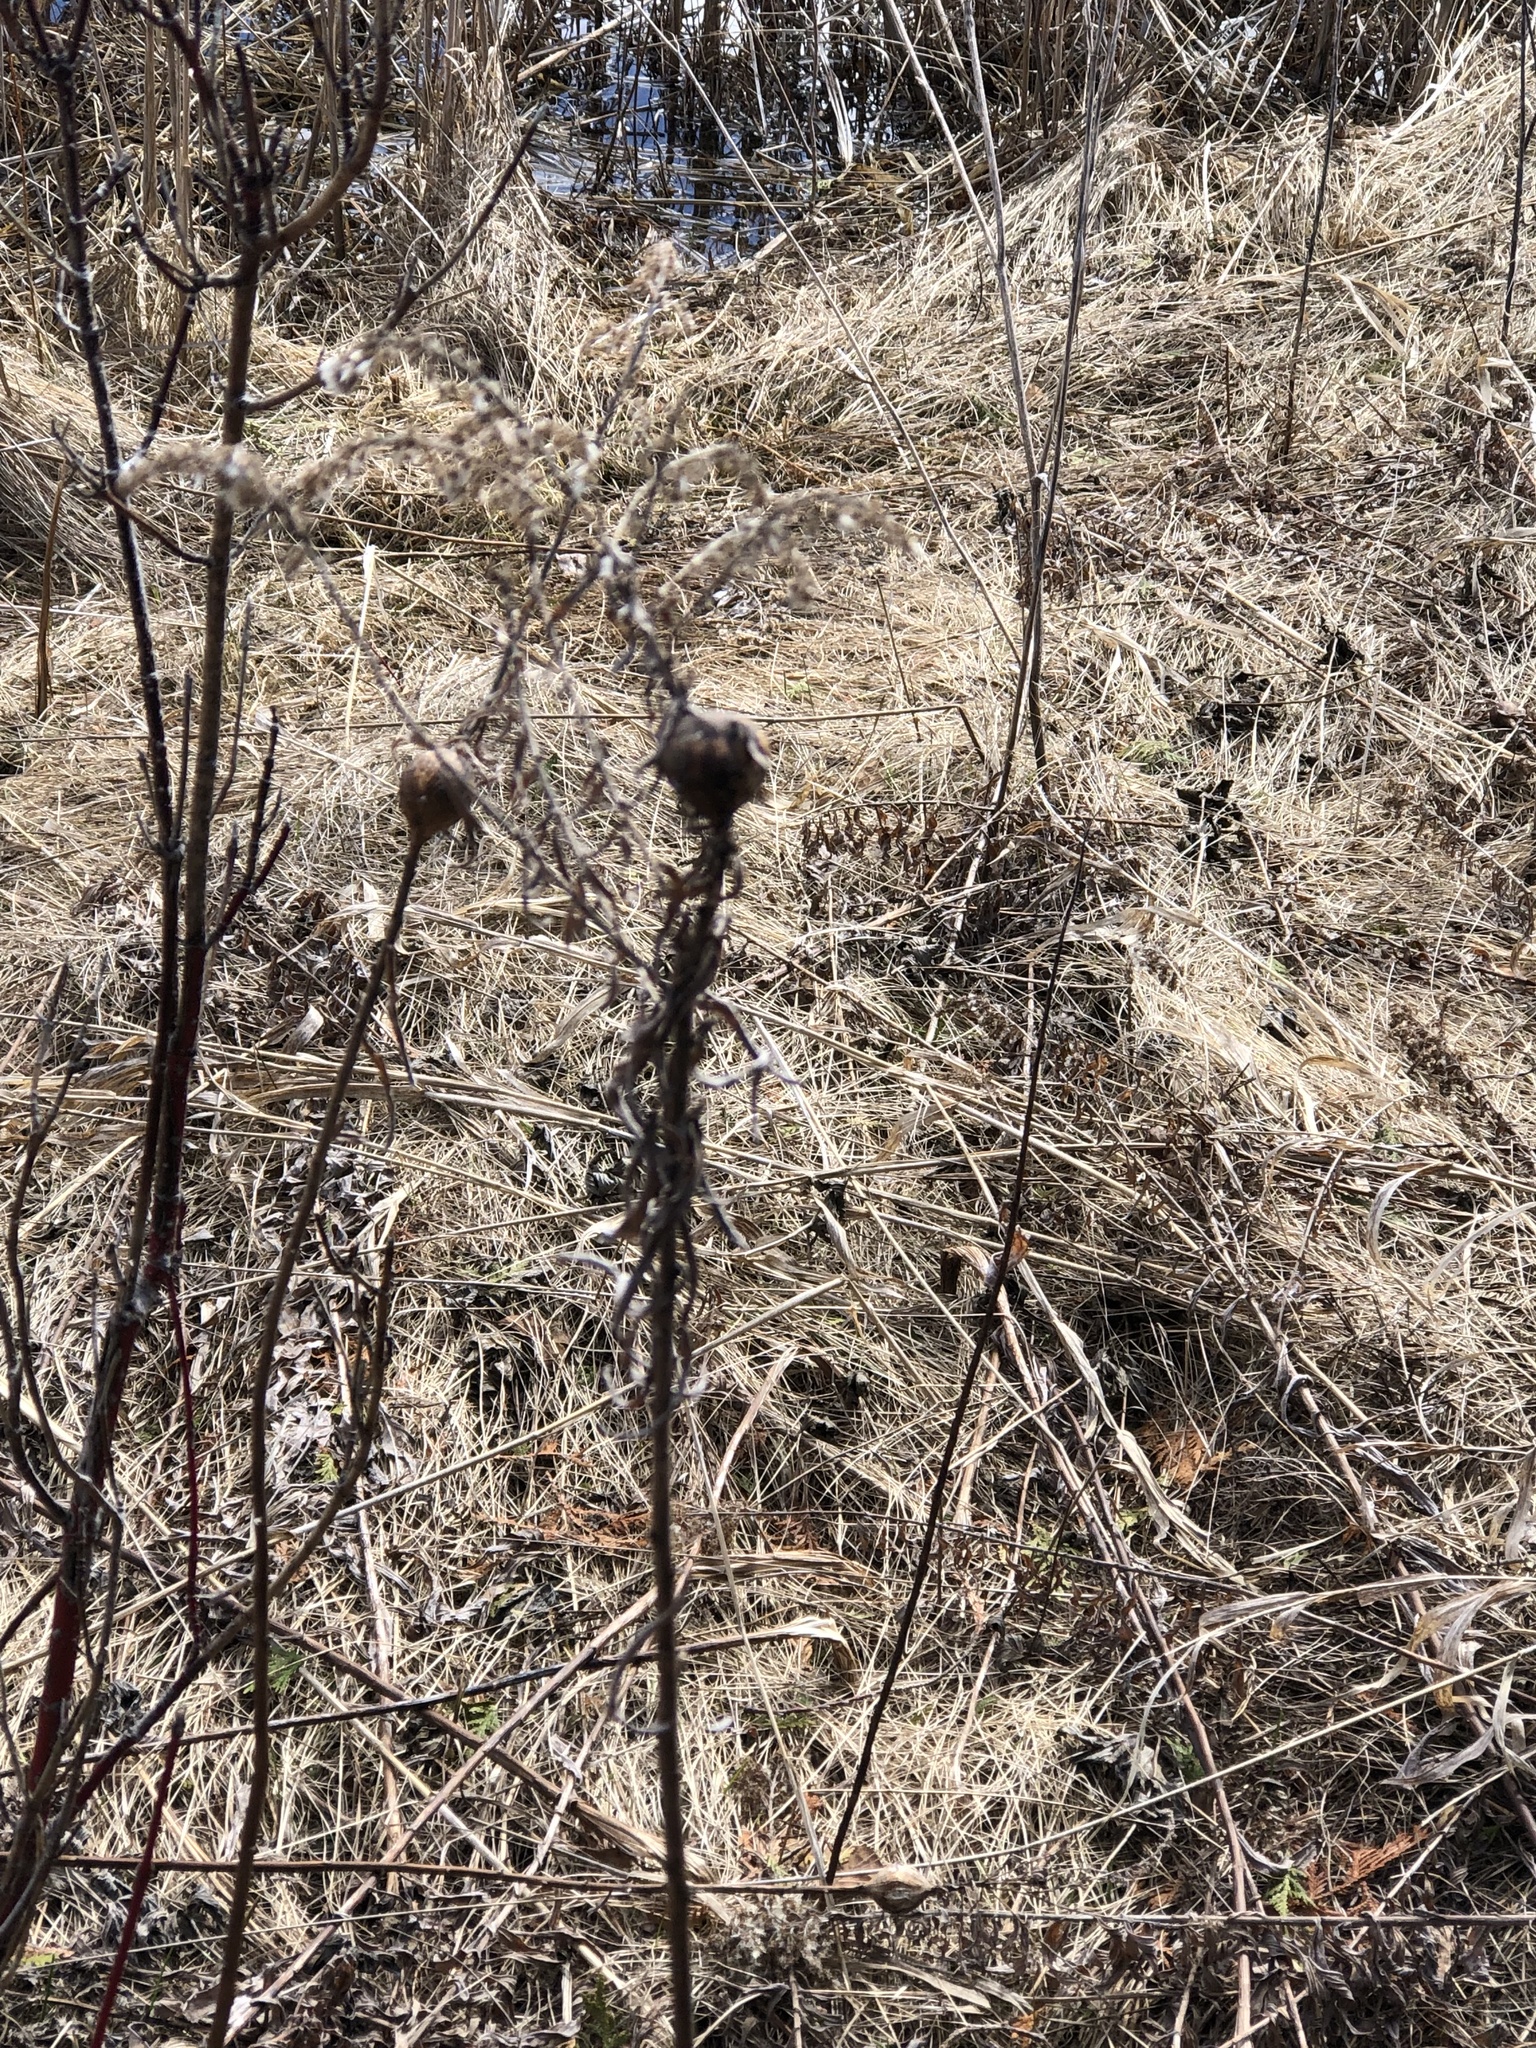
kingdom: Animalia
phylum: Arthropoda
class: Insecta
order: Diptera
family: Tephritidae
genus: Eurosta
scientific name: Eurosta solidaginis
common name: Goldenrod gall fly
